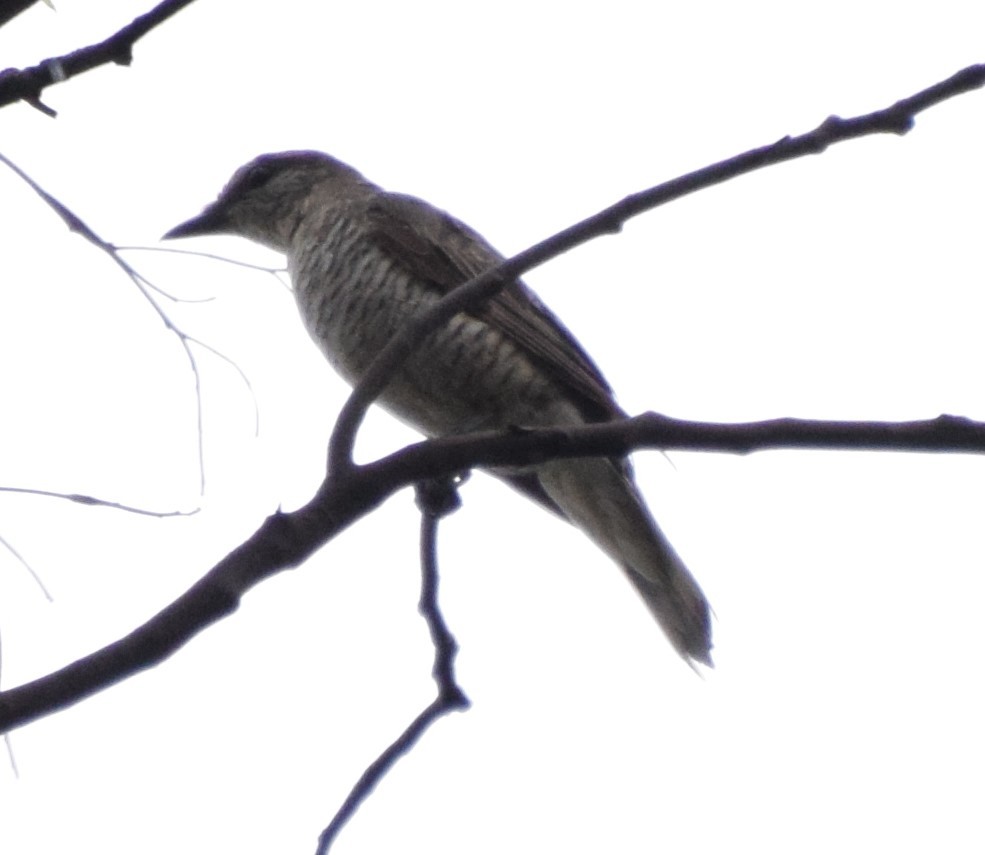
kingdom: Animalia
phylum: Chordata
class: Aves
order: Passeriformes
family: Campephagidae
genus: Edolisoma
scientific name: Edolisoma tenuirostre
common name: Common cicadabird
